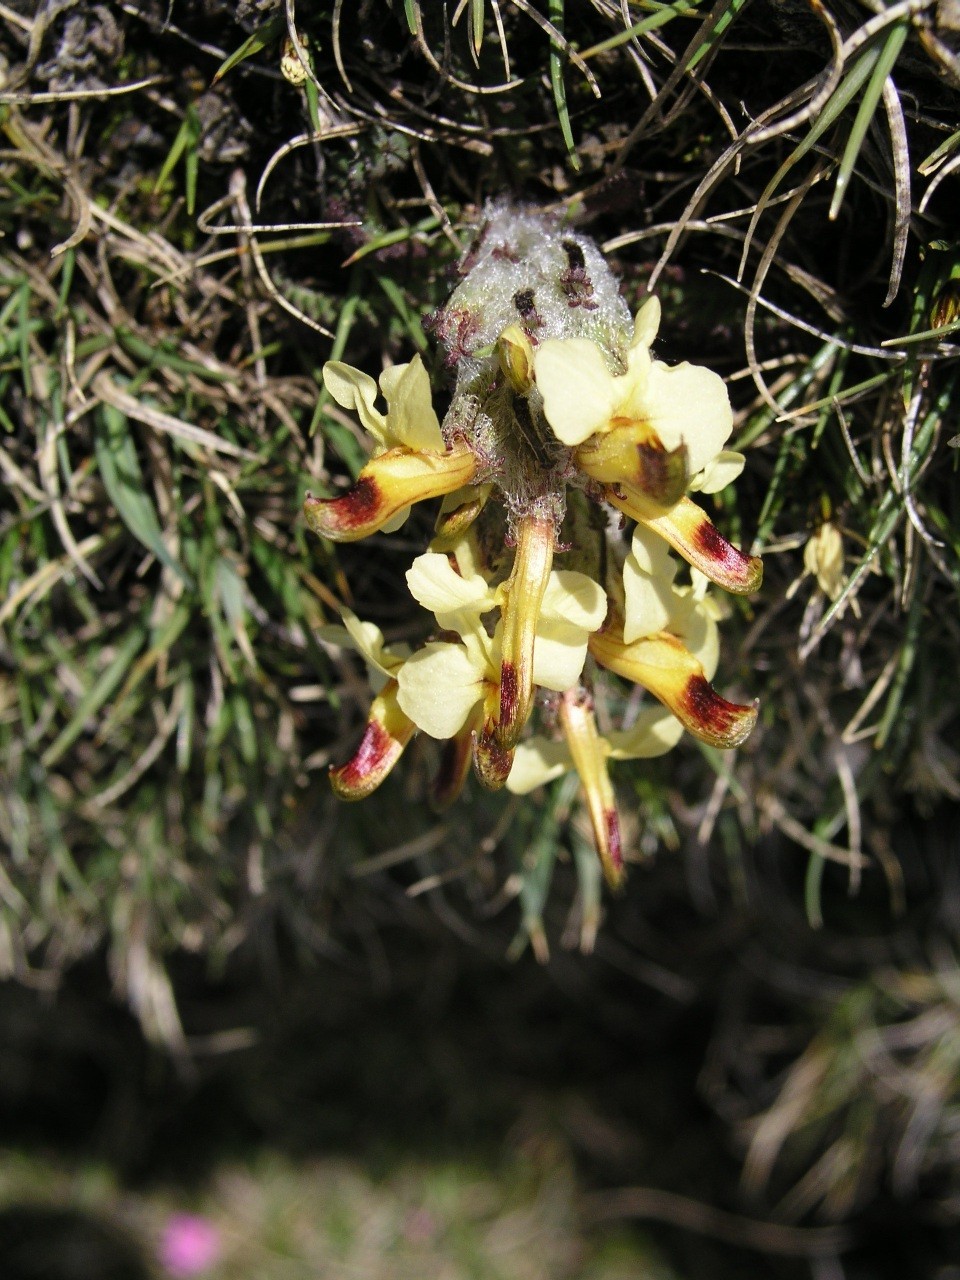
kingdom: Plantae
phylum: Tracheophyta
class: Magnoliopsida
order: Lamiales
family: Orobanchaceae
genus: Pedicularis
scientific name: Pedicularis oederi
